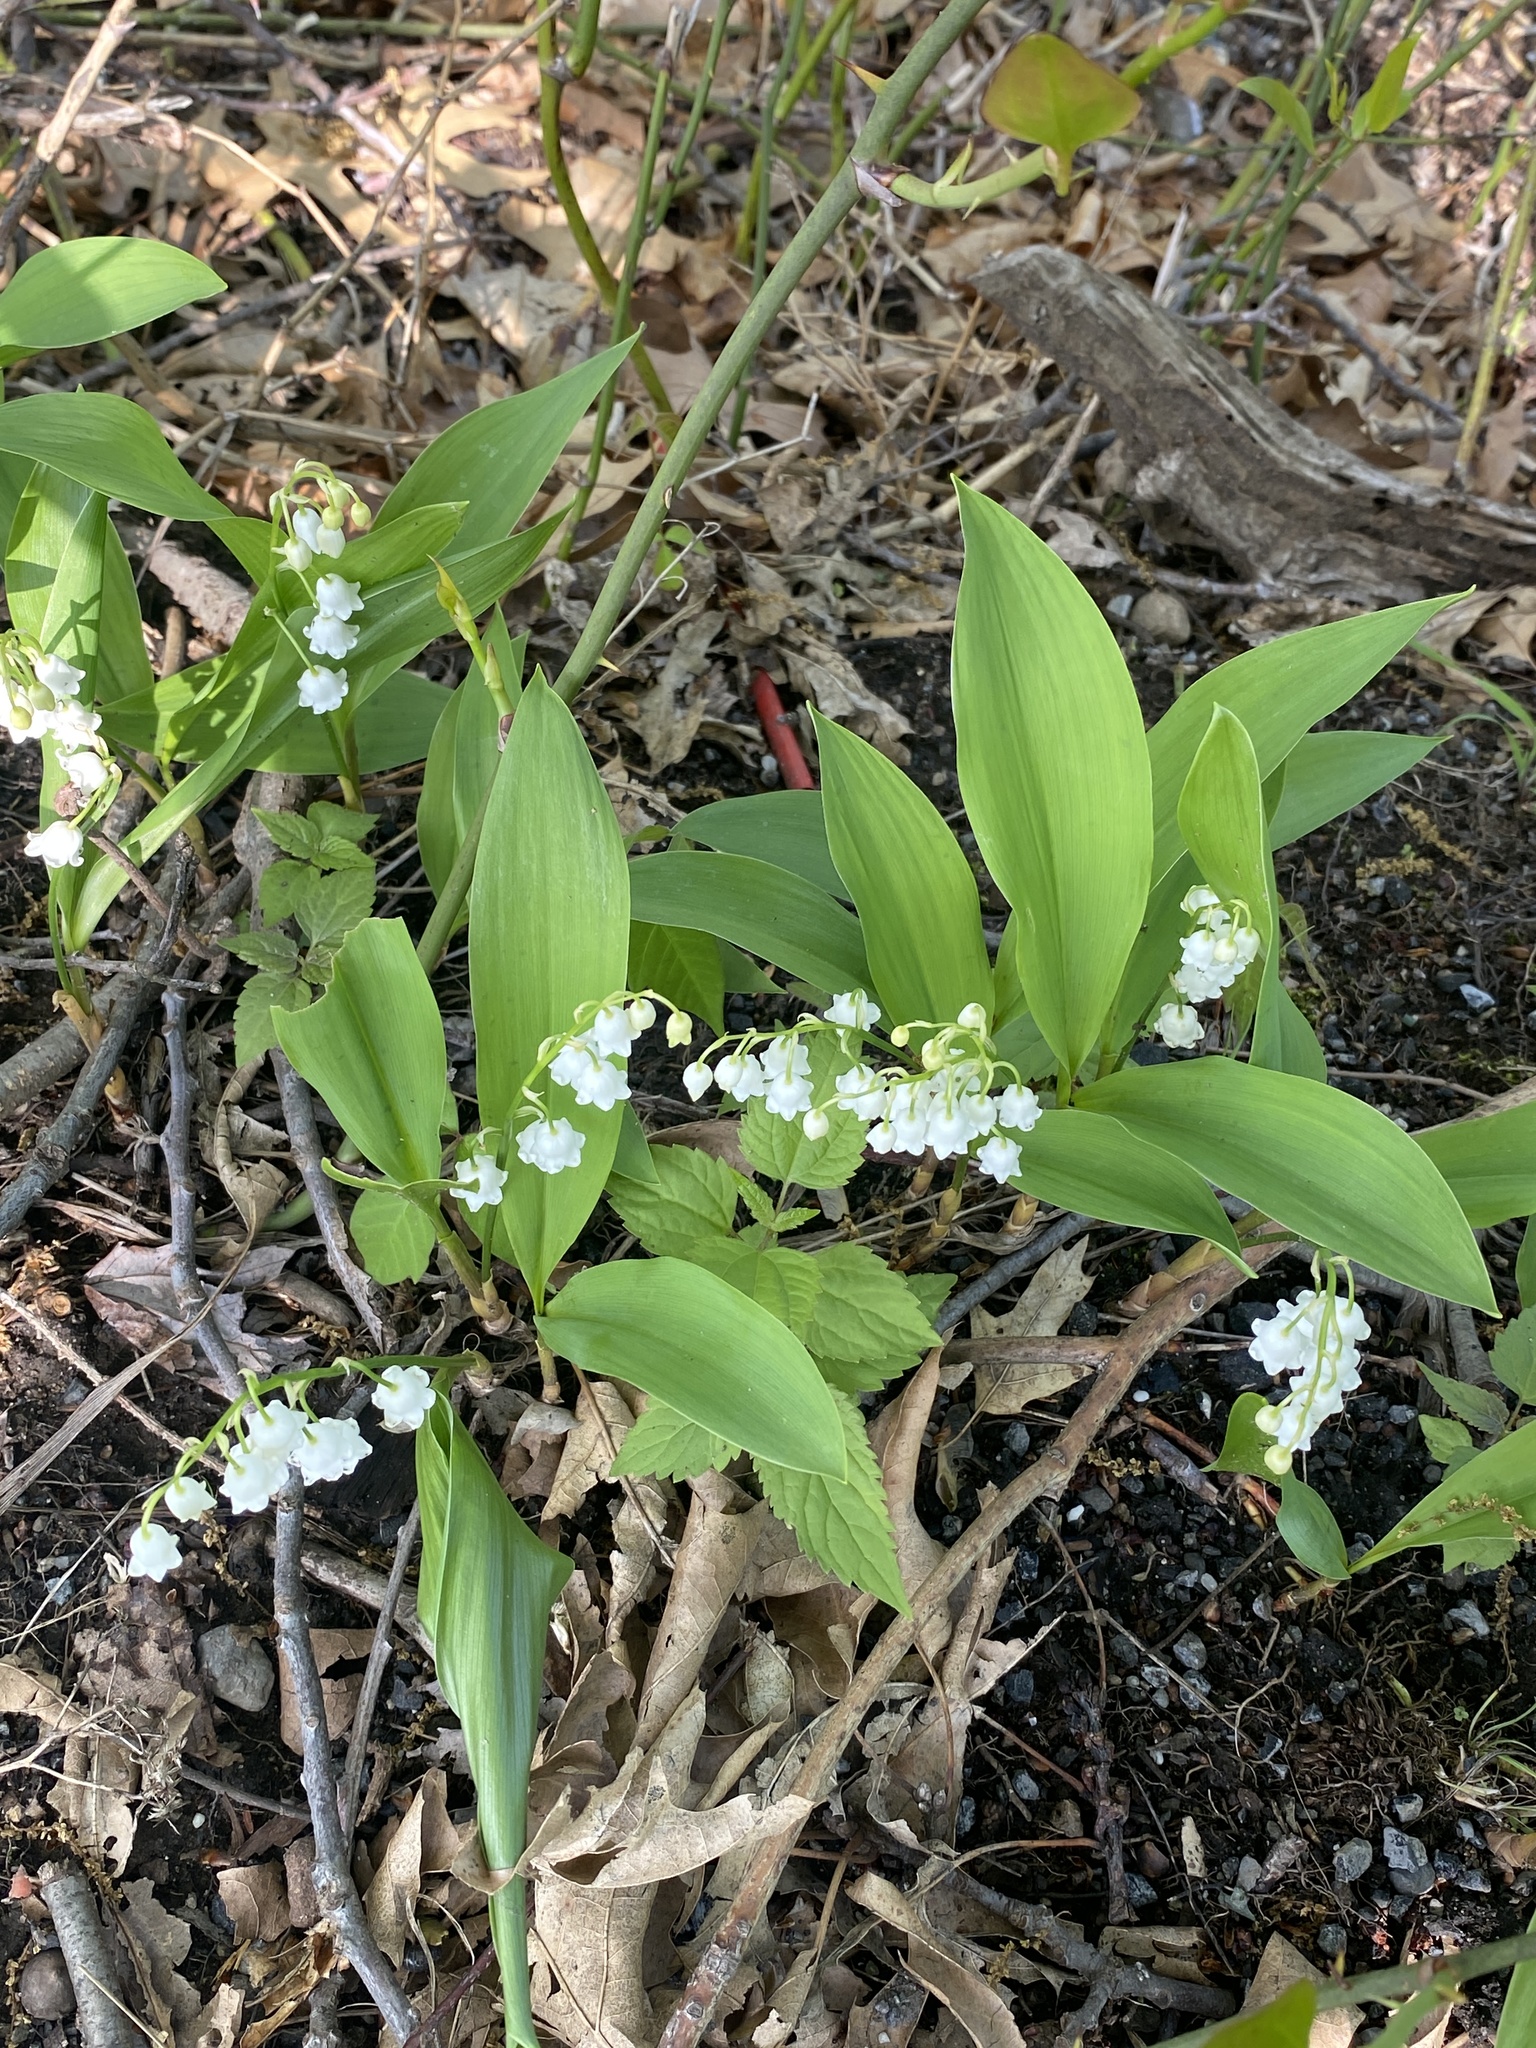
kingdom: Plantae
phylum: Tracheophyta
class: Liliopsida
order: Asparagales
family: Asparagaceae
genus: Convallaria
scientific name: Convallaria majalis
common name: Lily-of-the-valley
